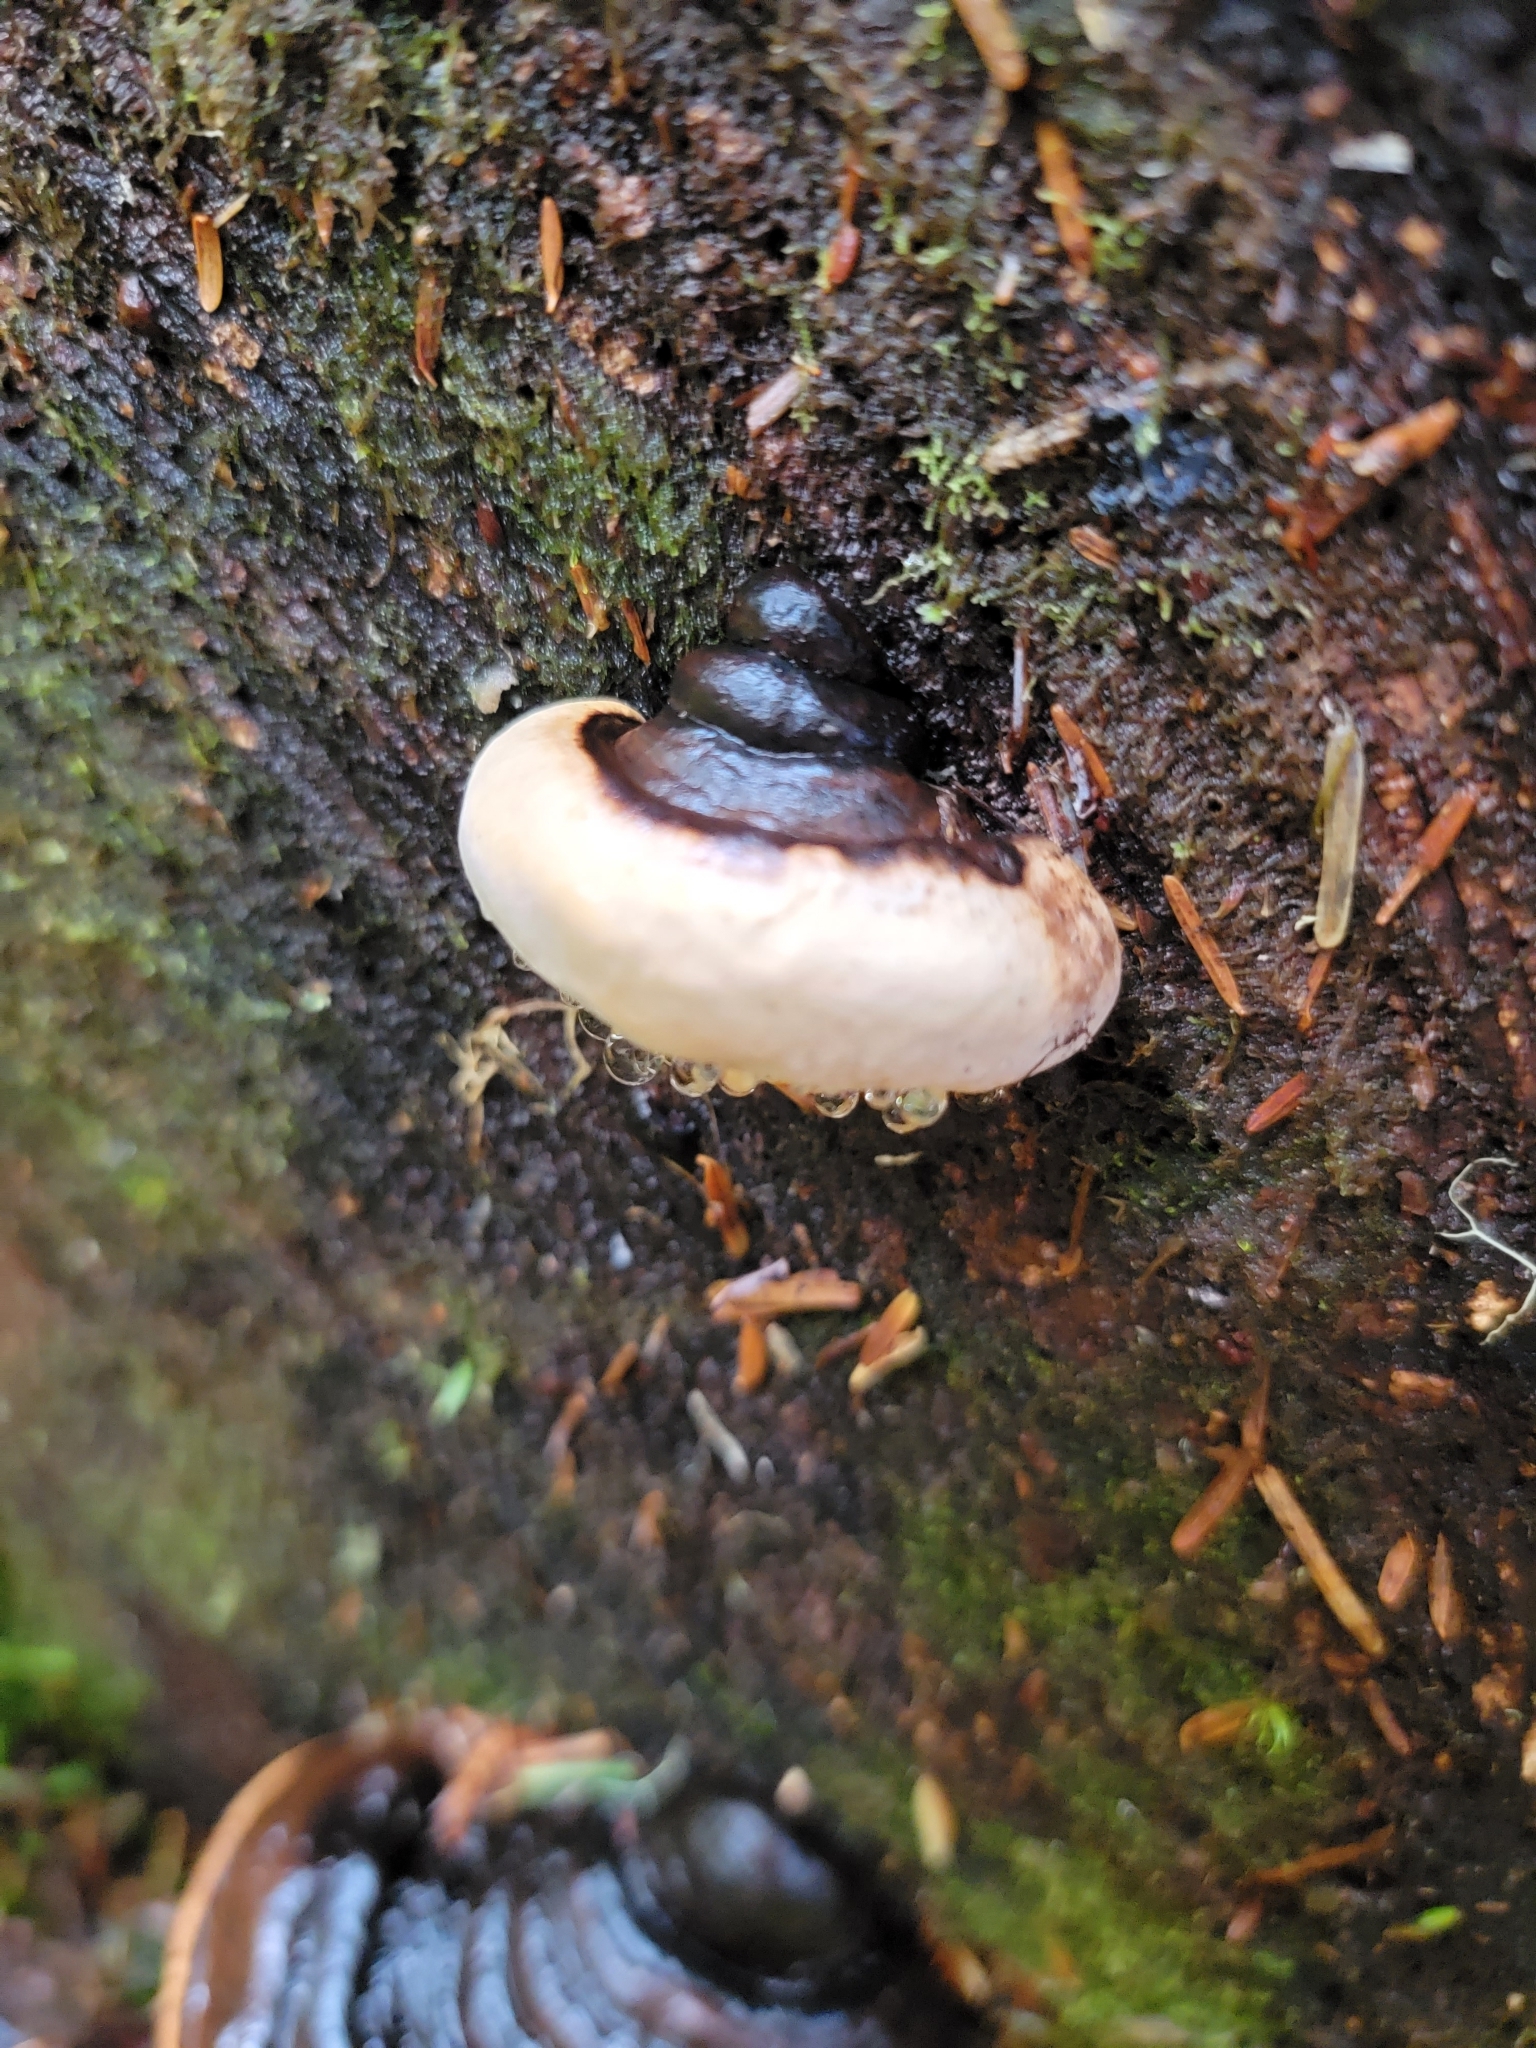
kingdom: Fungi
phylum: Basidiomycota
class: Agaricomycetes
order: Polyporales
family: Fomitopsidaceae
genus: Fomitopsis
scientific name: Fomitopsis ochracea
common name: American brown fomitopsis
